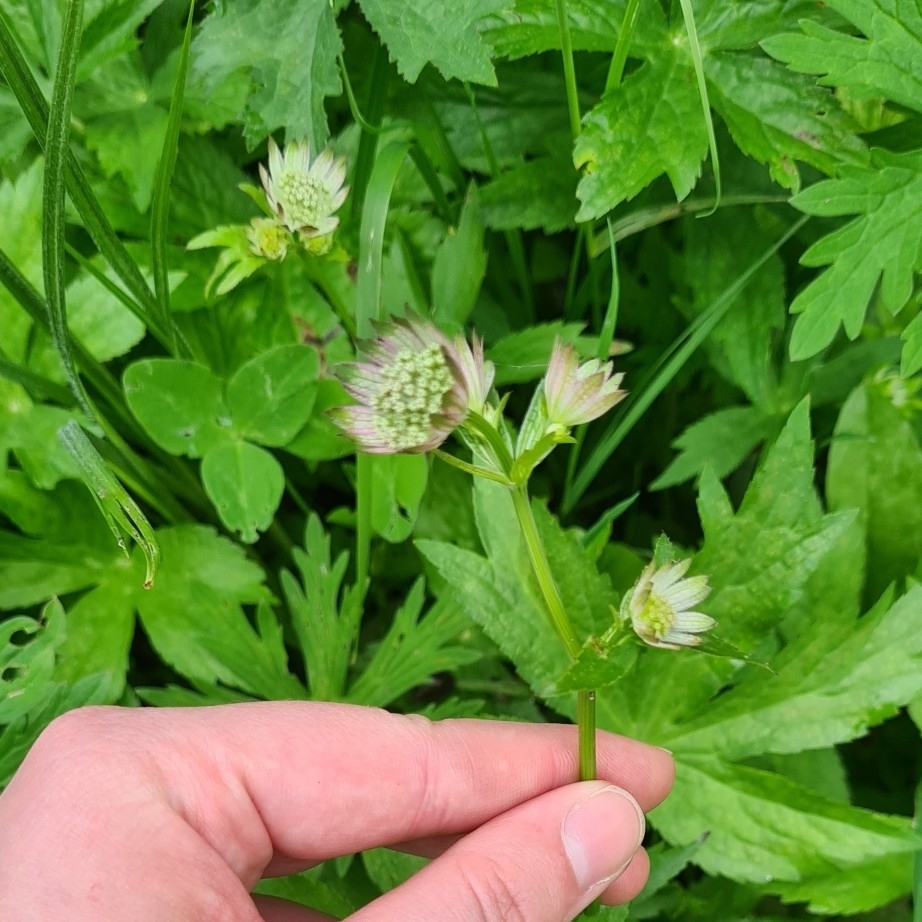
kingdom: Plantae
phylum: Tracheophyta
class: Magnoliopsida
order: Apiales
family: Apiaceae
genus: Astrantia
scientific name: Astrantia major
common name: Greater masterwort
